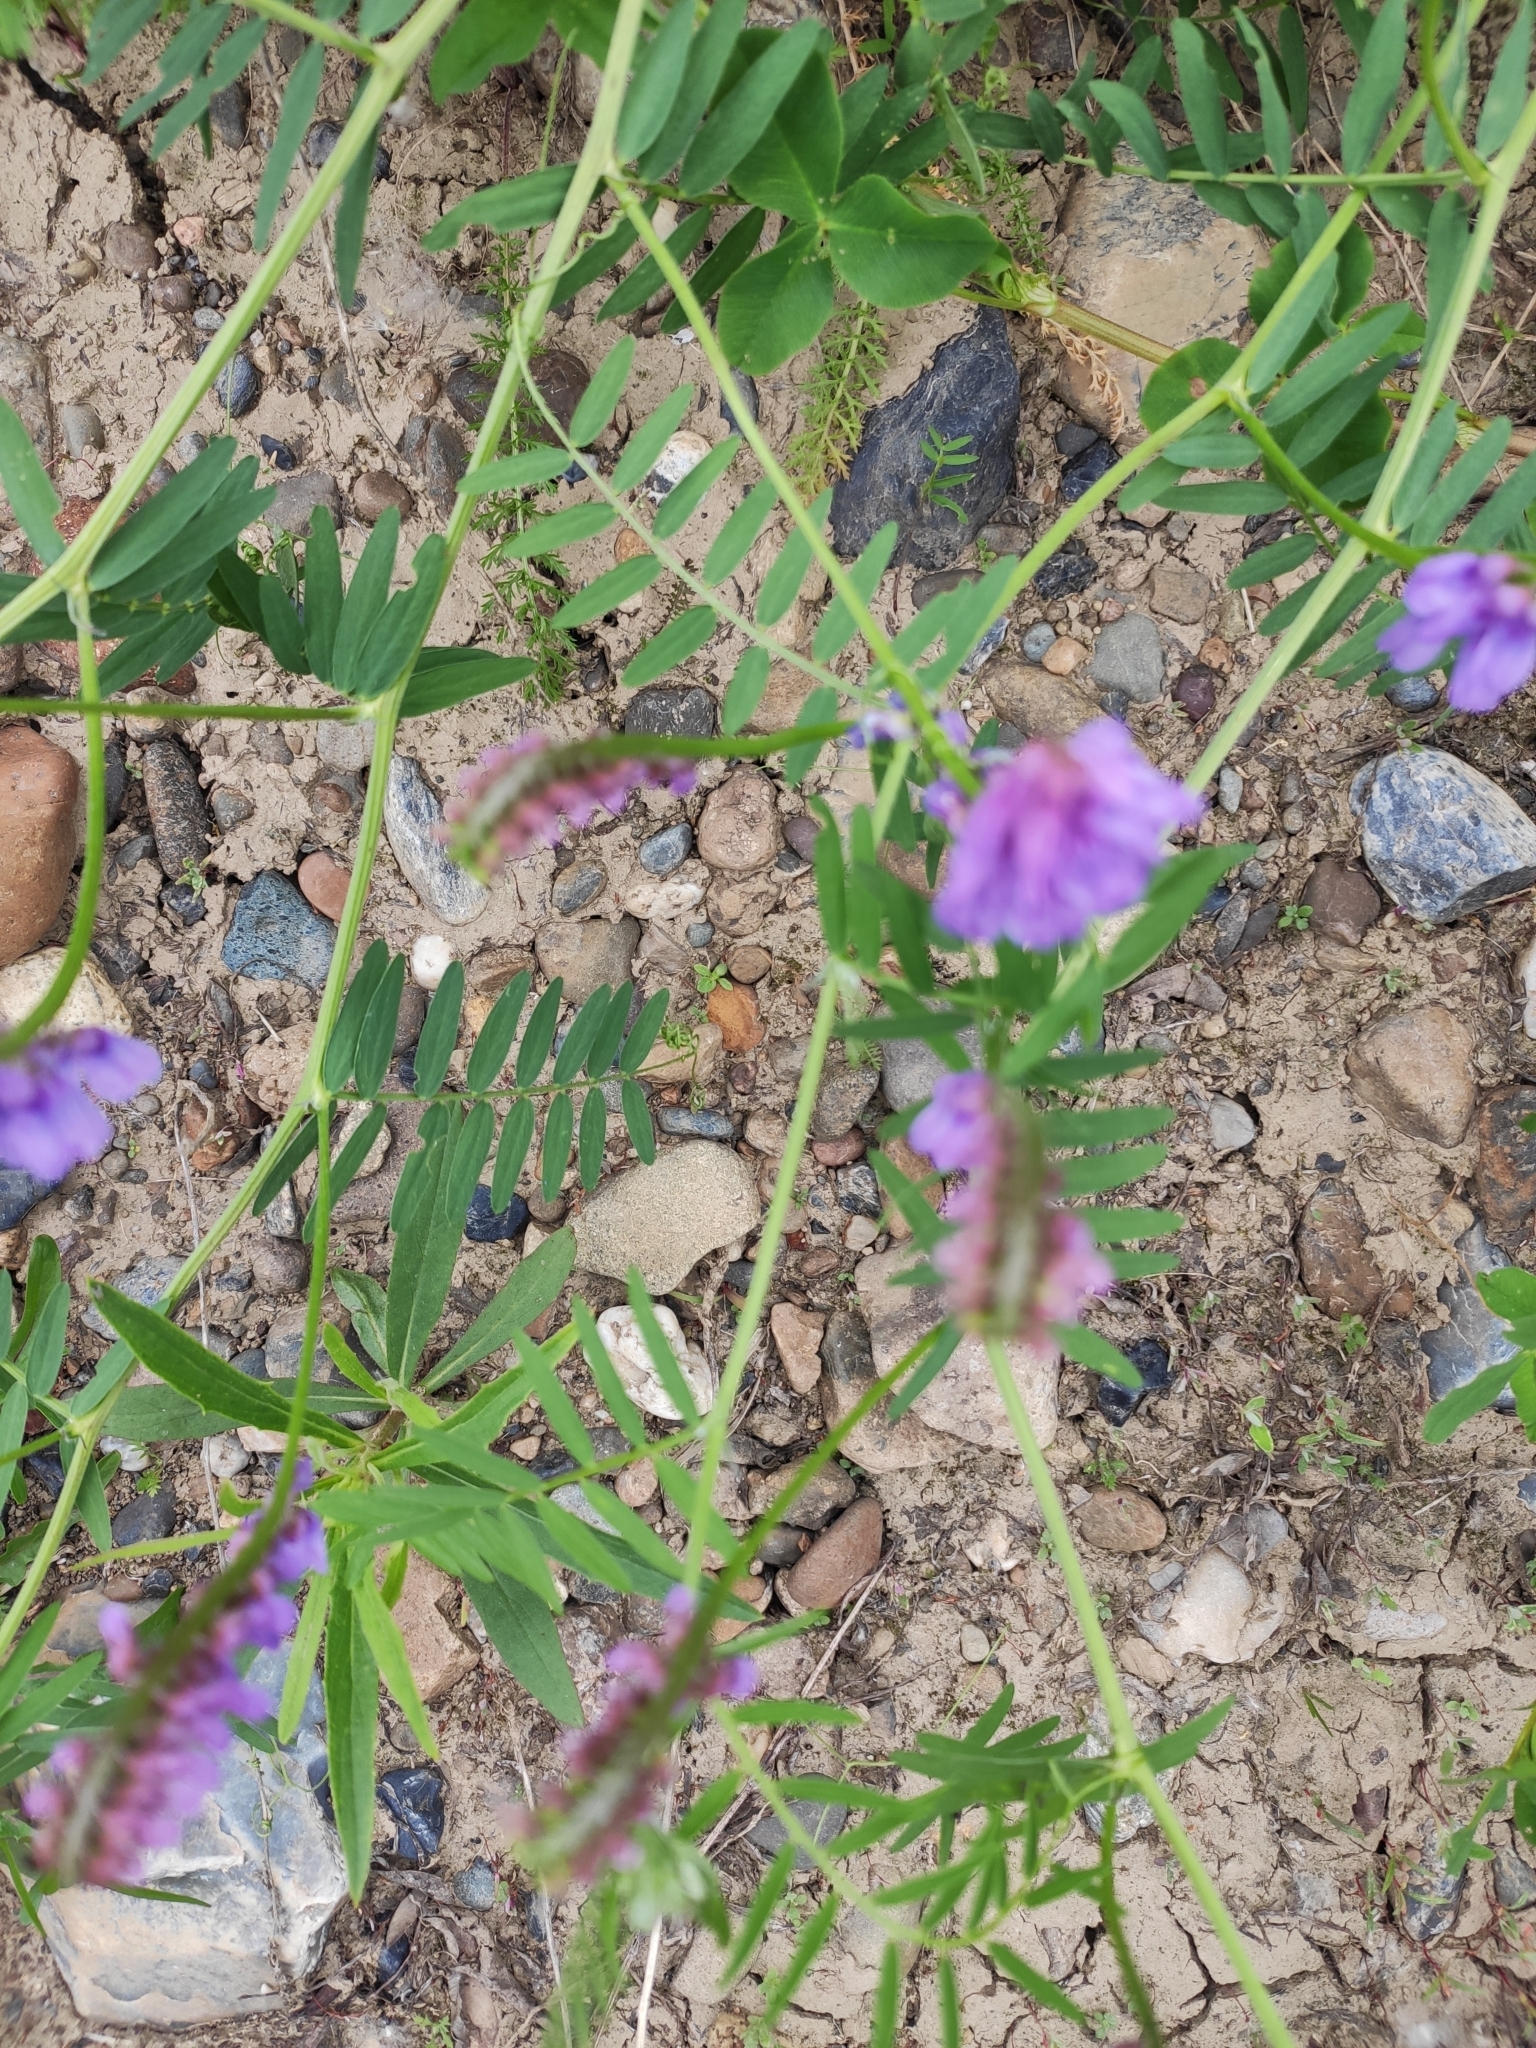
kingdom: Plantae
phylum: Tracheophyta
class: Magnoliopsida
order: Fabales
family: Fabaceae
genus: Vicia
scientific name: Vicia cracca
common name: Bird vetch
